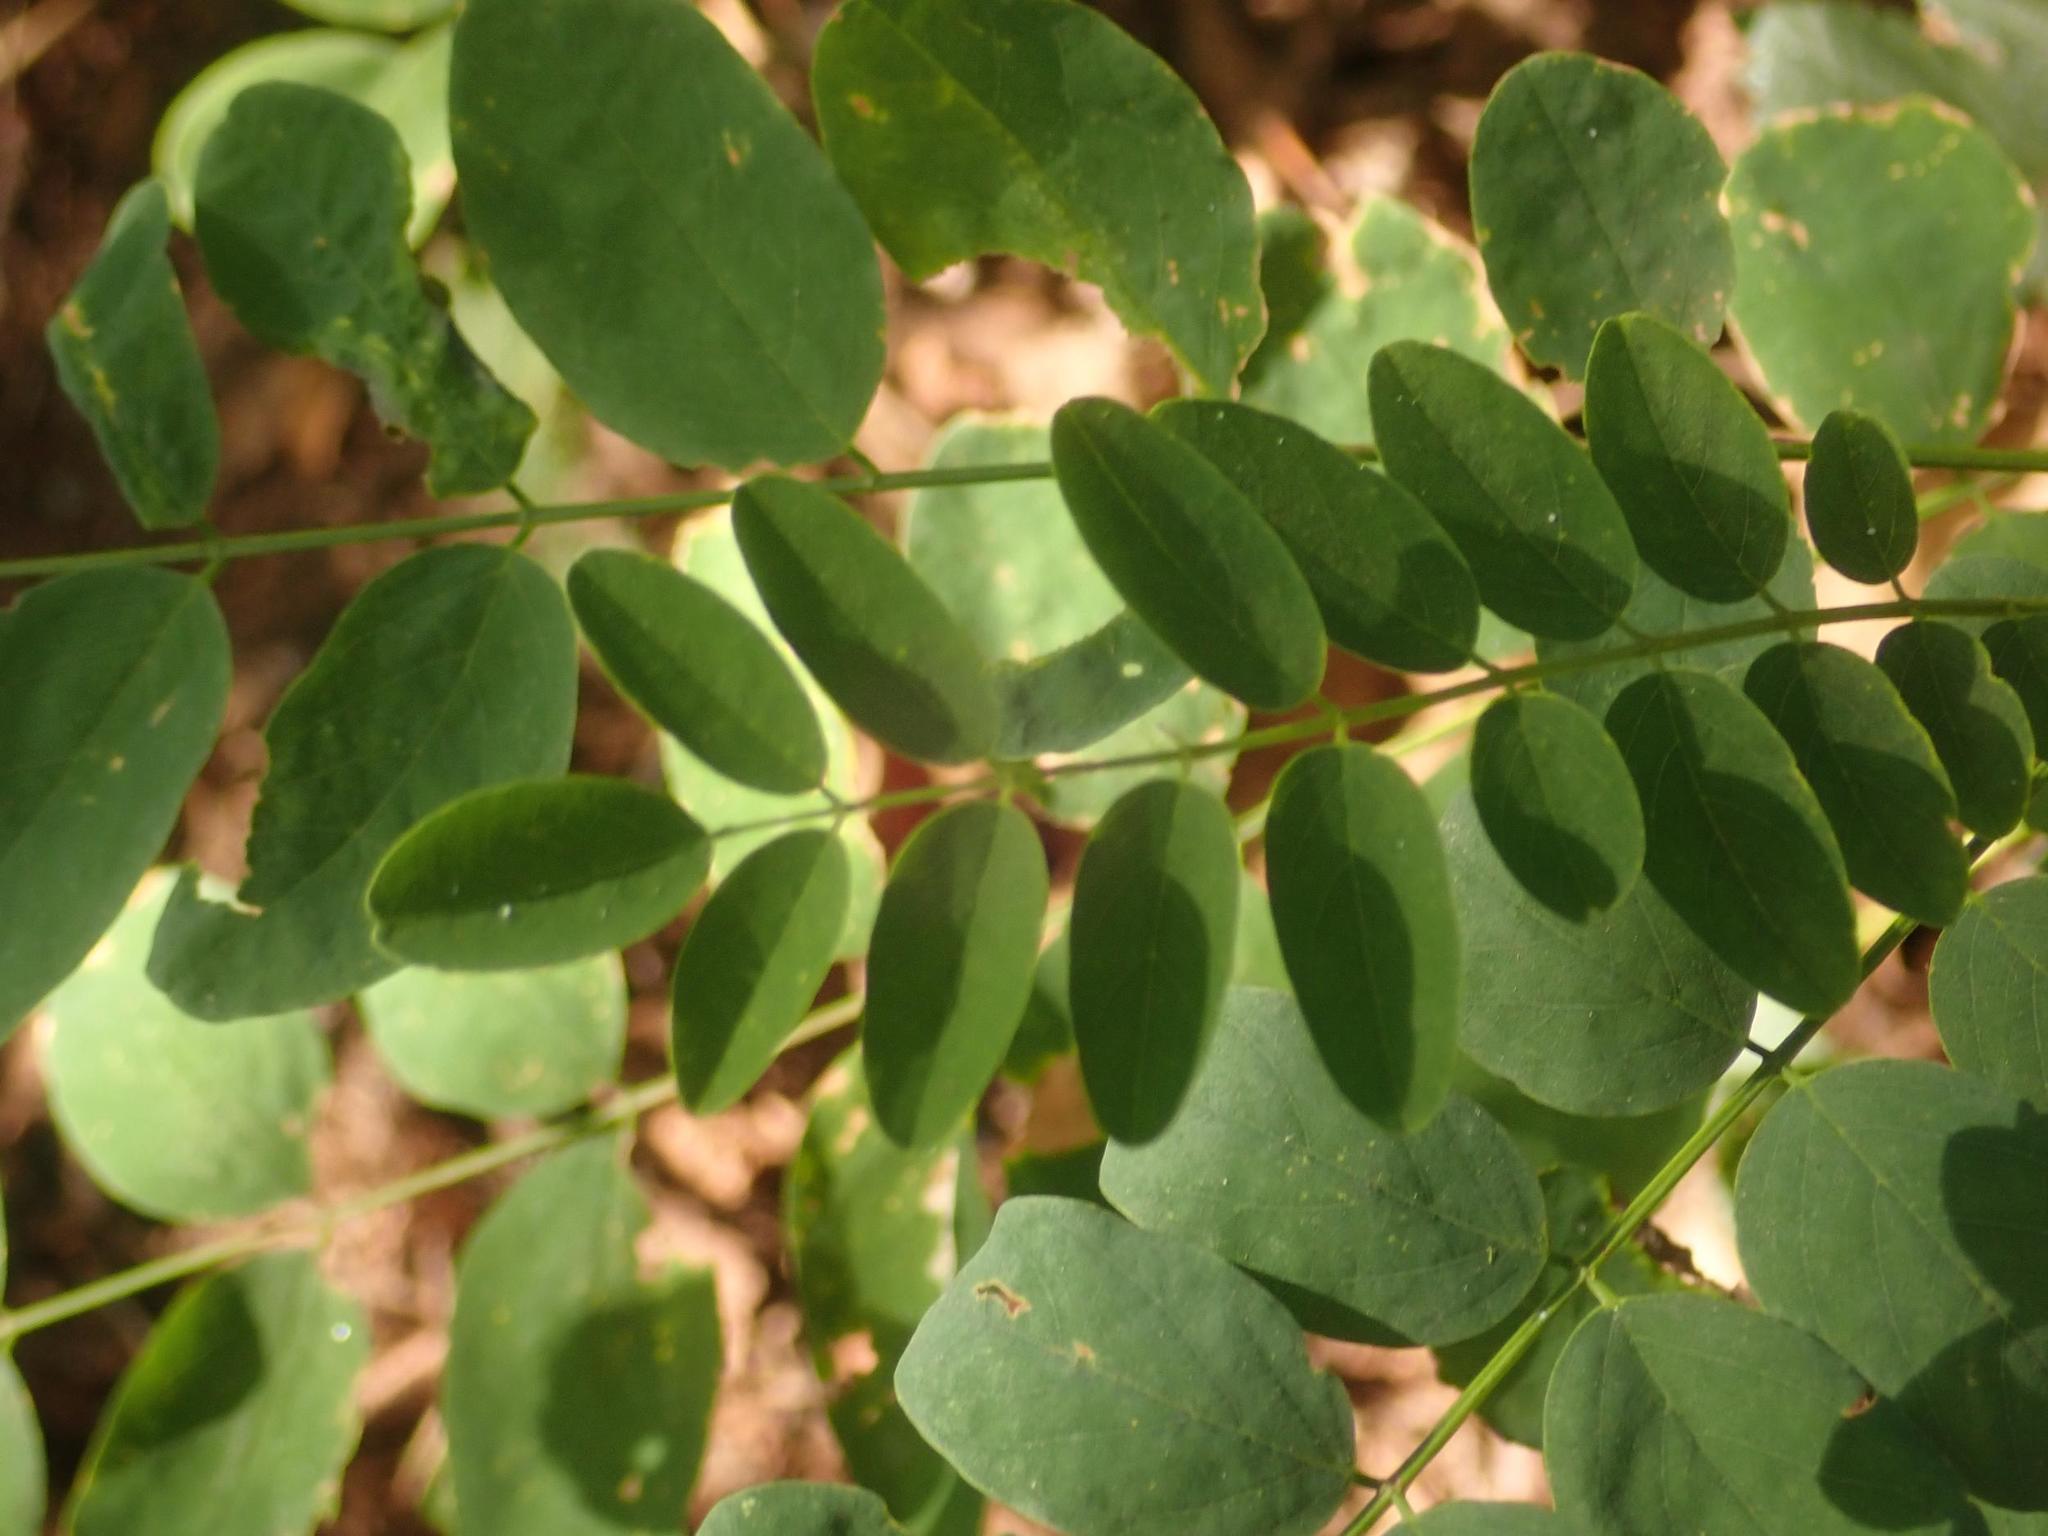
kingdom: Plantae
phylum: Tracheophyta
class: Magnoliopsida
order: Fabales
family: Fabaceae
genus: Robinia
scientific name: Robinia pseudoacacia
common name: Black locust
